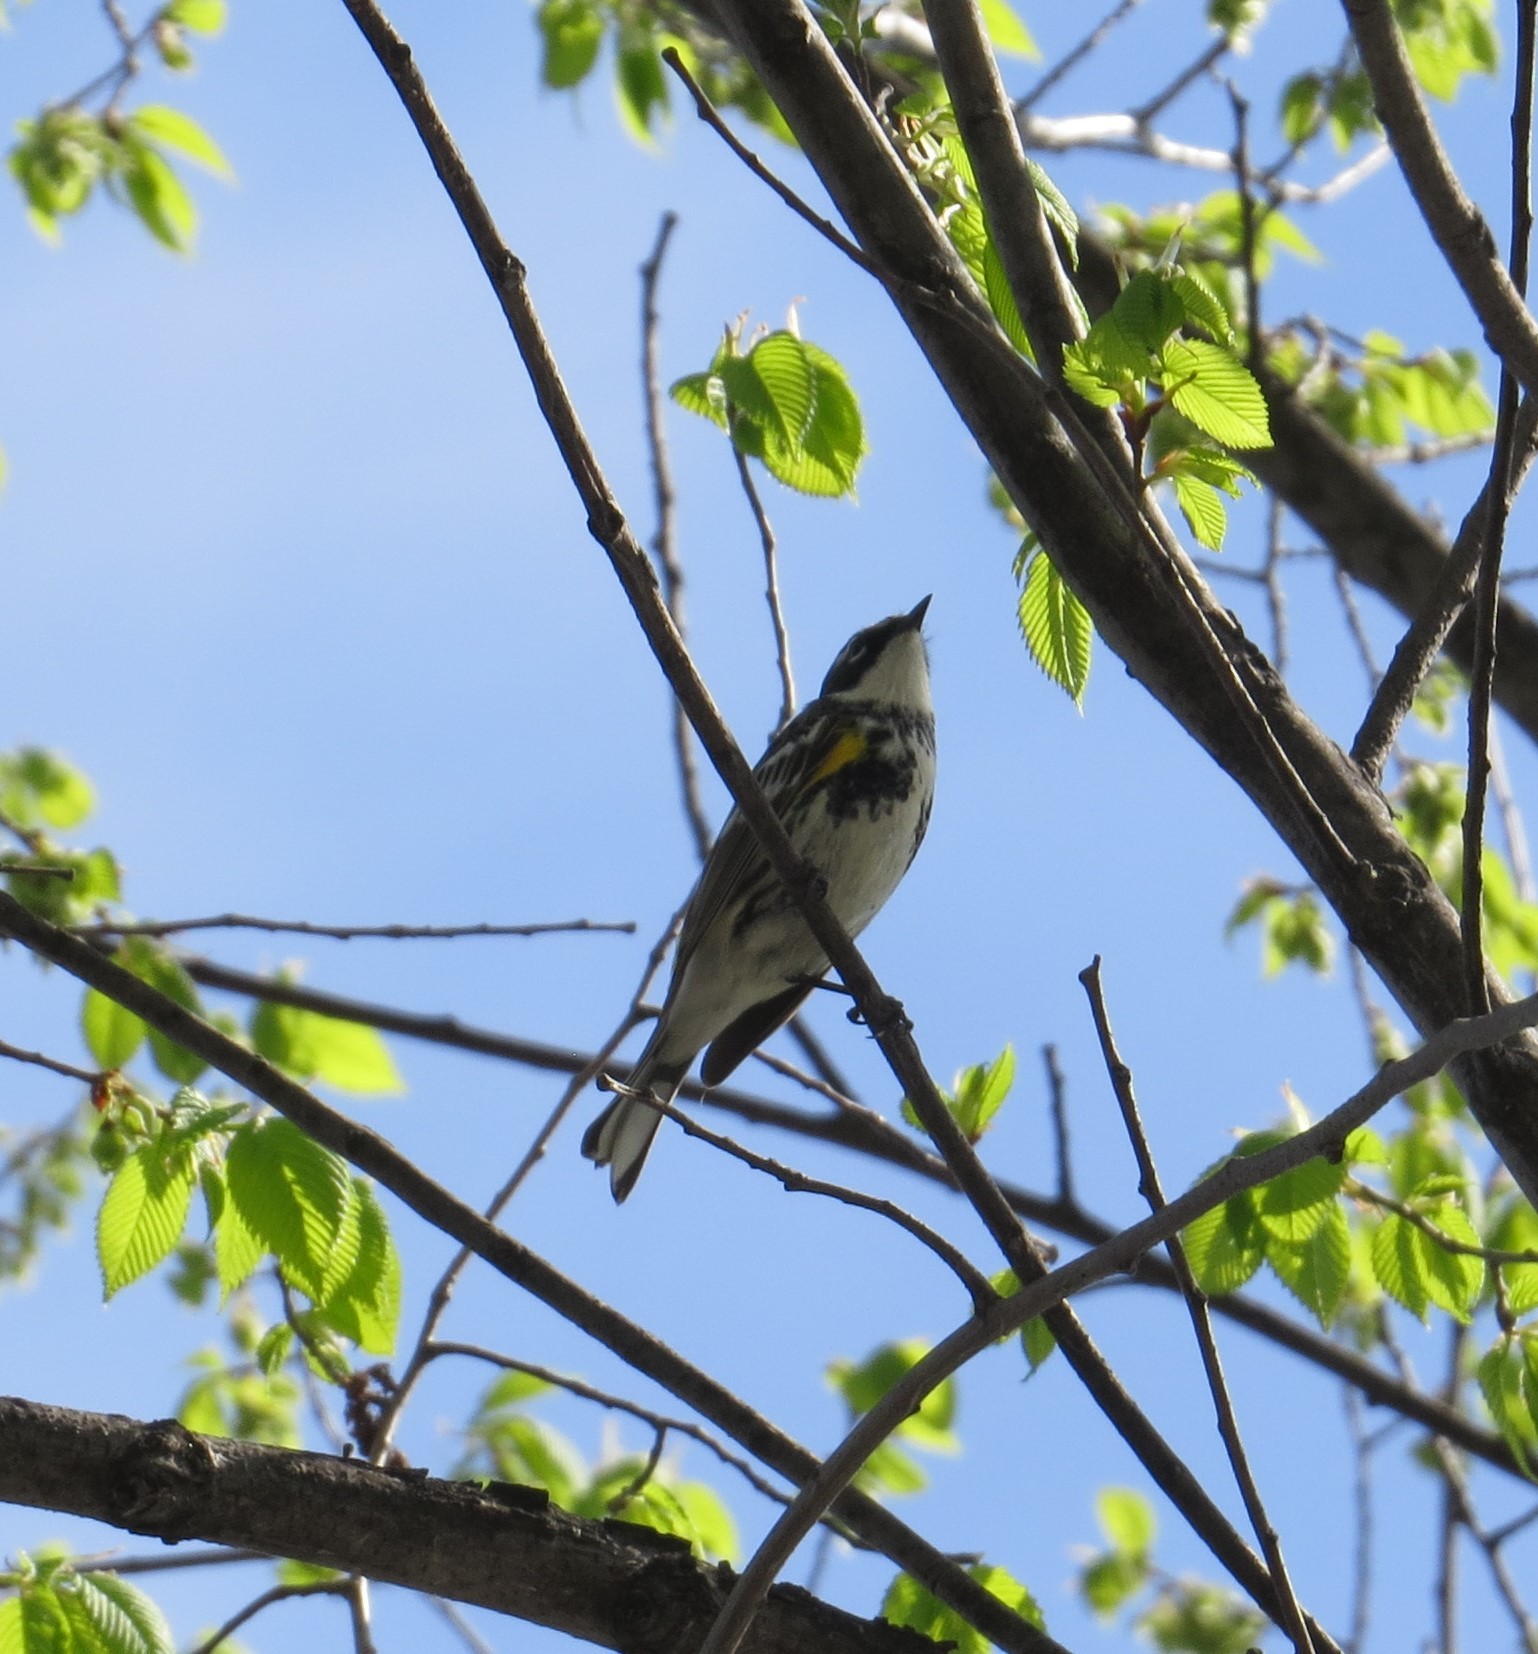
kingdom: Animalia
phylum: Chordata
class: Aves
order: Passeriformes
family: Parulidae
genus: Setophaga
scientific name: Setophaga coronata
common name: Myrtle warbler
